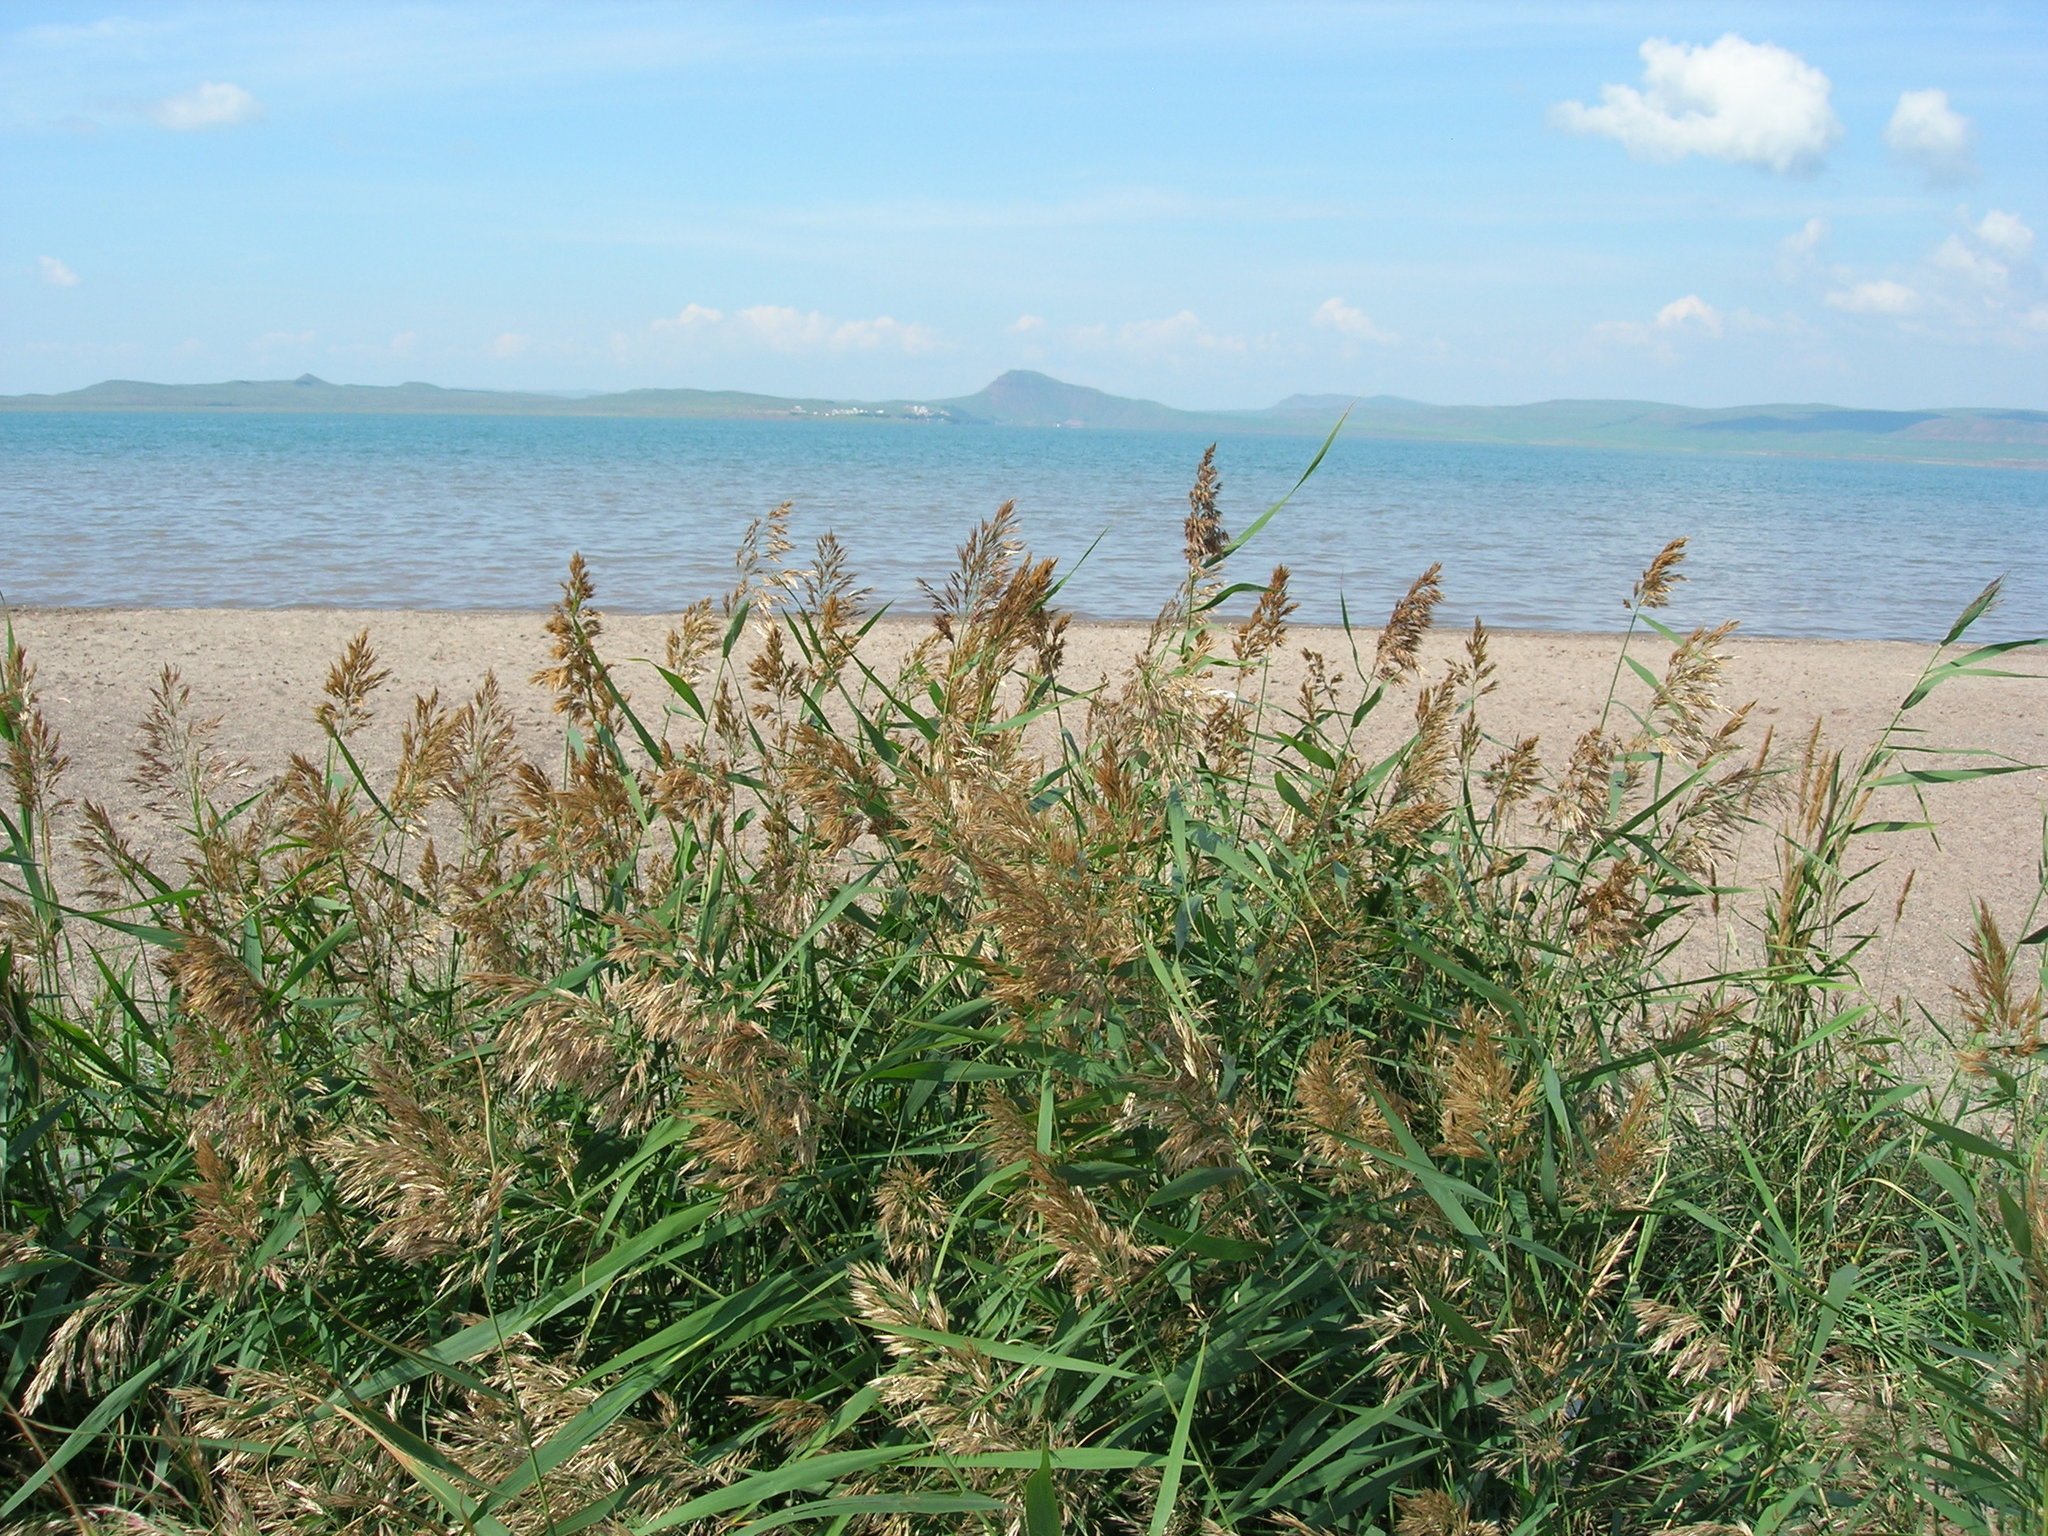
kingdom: Plantae
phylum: Tracheophyta
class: Liliopsida
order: Poales
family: Poaceae
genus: Phragmites
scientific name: Phragmites australis
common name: Common reed
